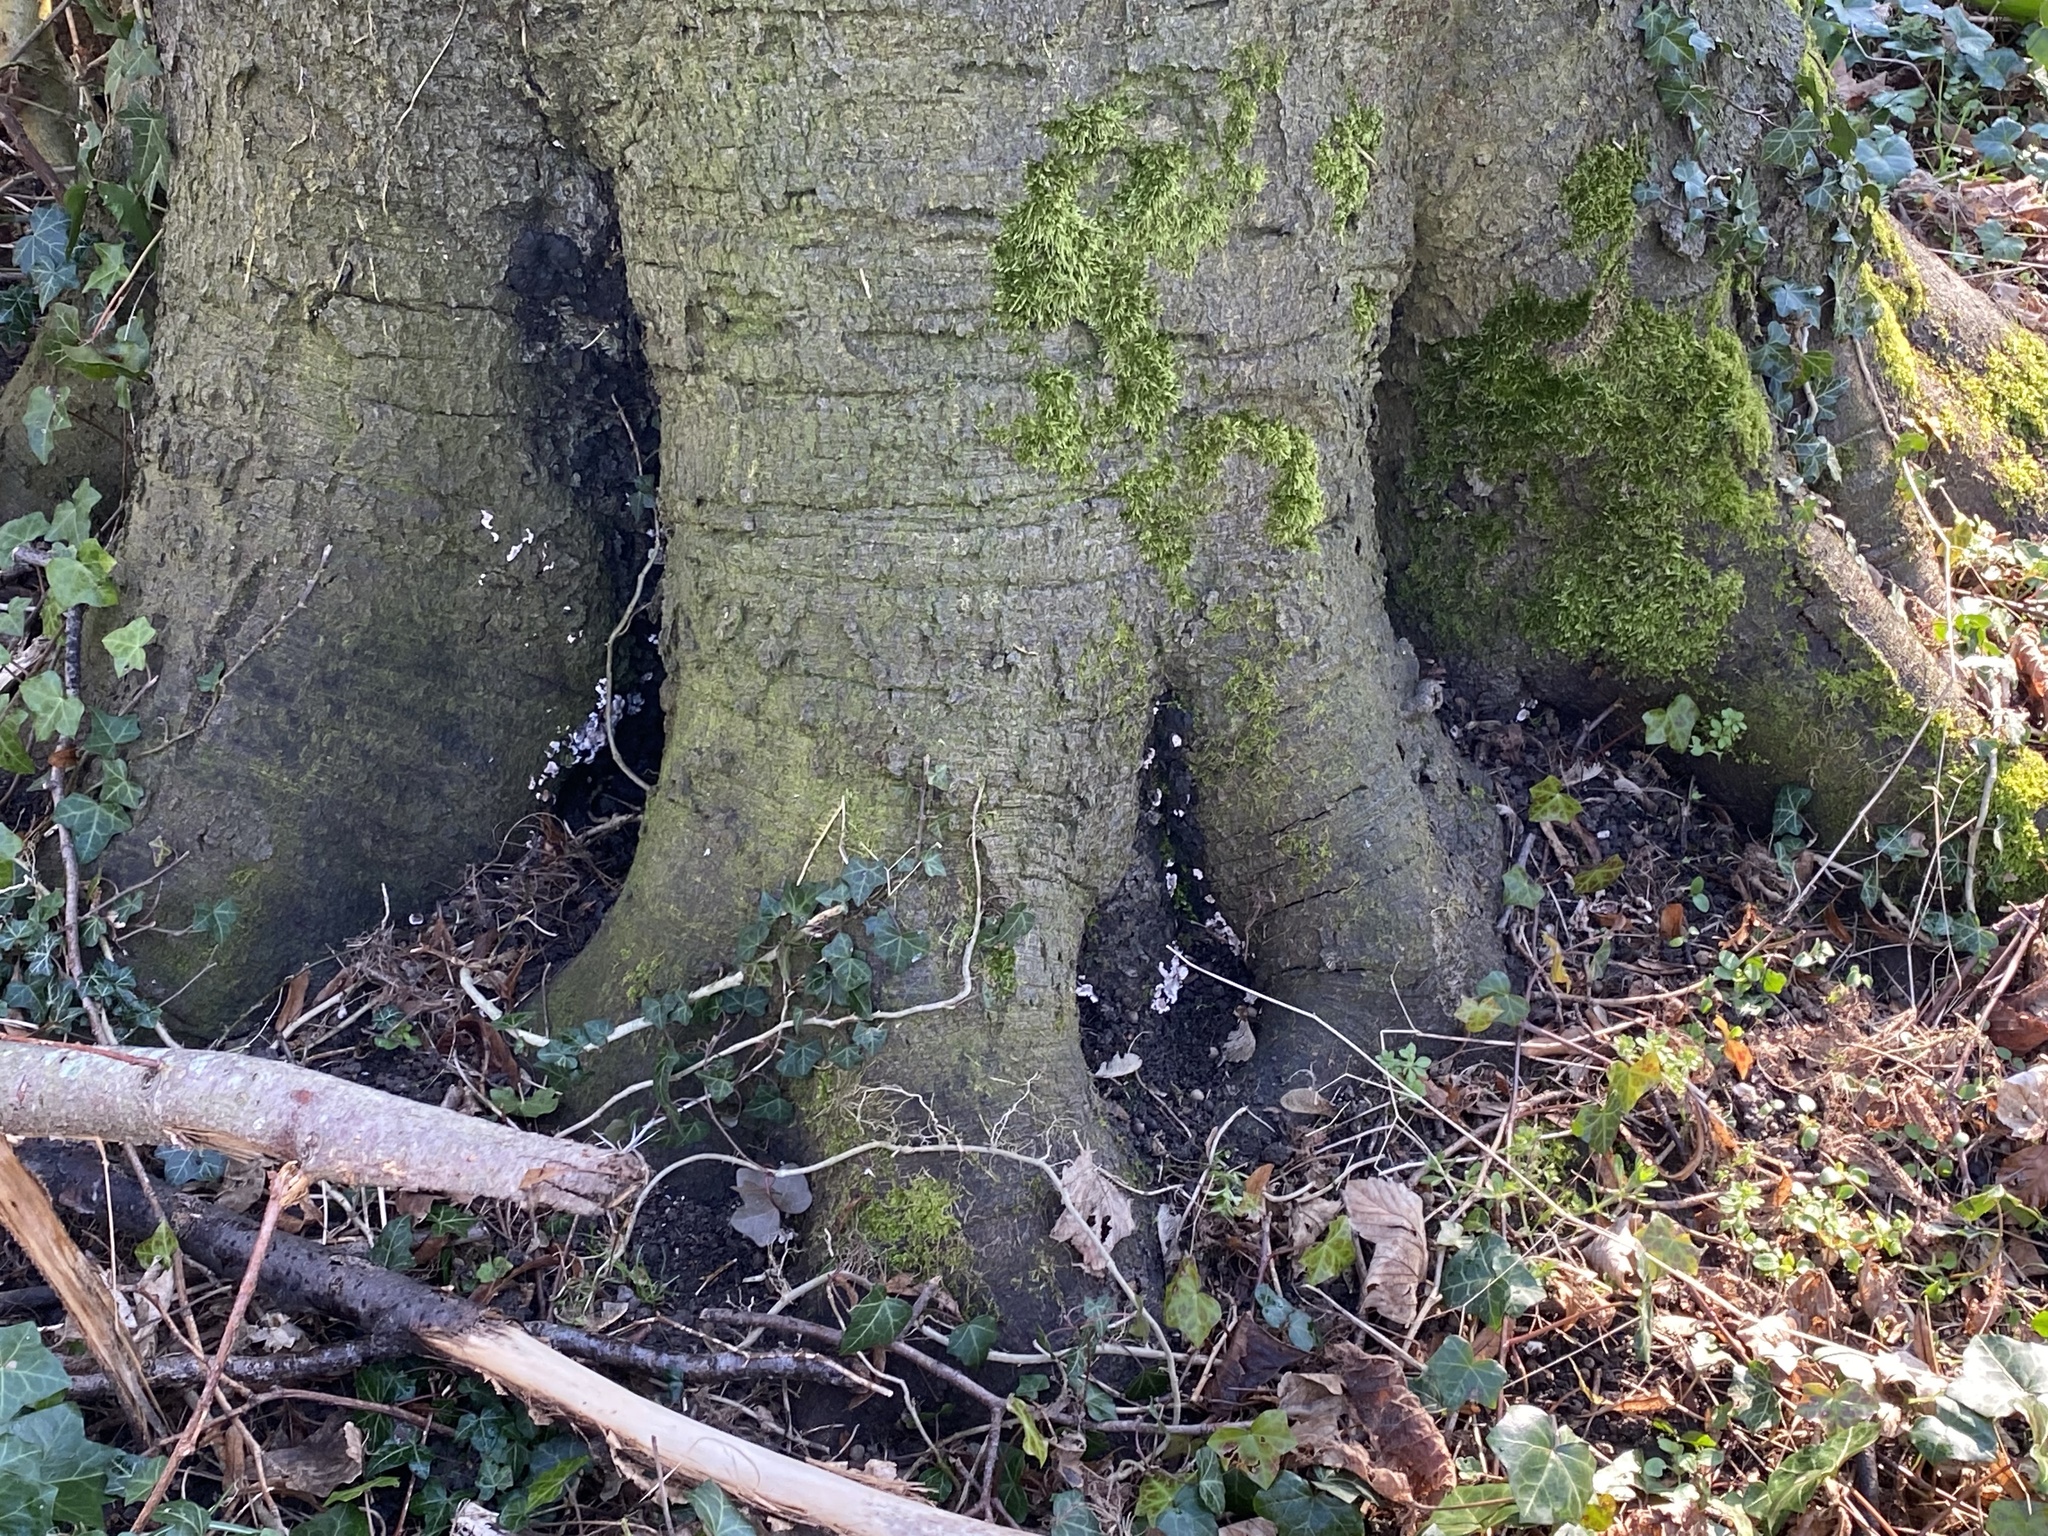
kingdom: Fungi
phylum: Basidiomycota
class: Agaricomycetes
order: Agaricales
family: Cyphellaceae
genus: Chondrostereum
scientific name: Chondrostereum purpureum
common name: Silver leaf disease
